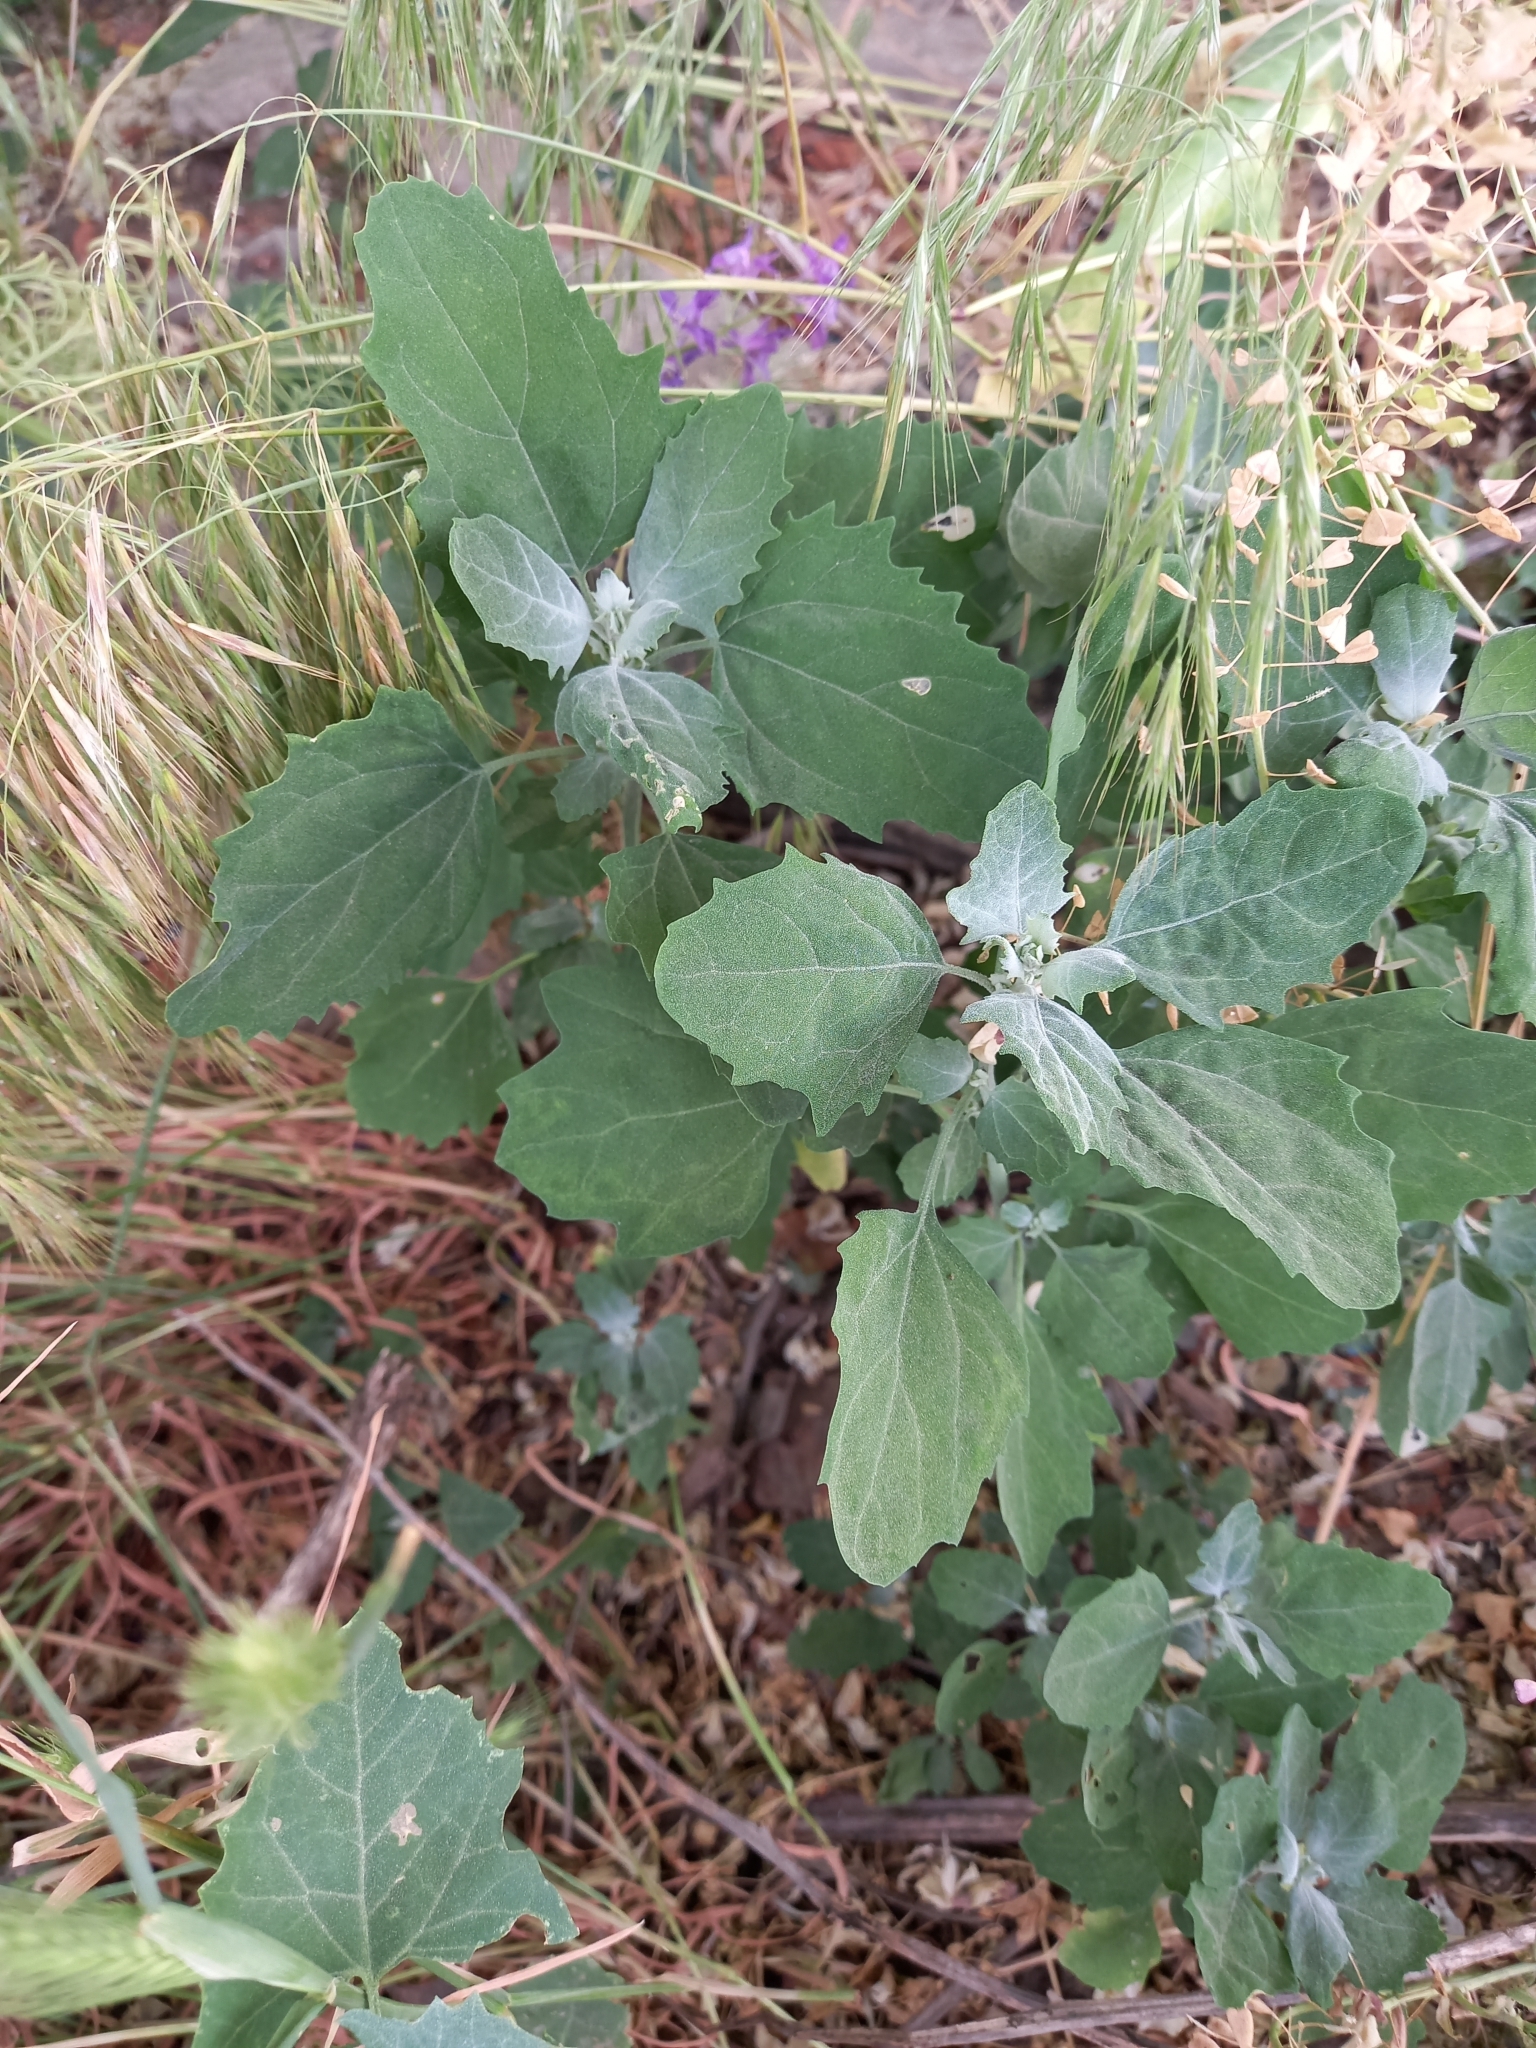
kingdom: Plantae
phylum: Tracheophyta
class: Magnoliopsida
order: Caryophyllales
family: Amaranthaceae
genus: Chenopodium
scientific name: Chenopodium album
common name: Fat-hen
